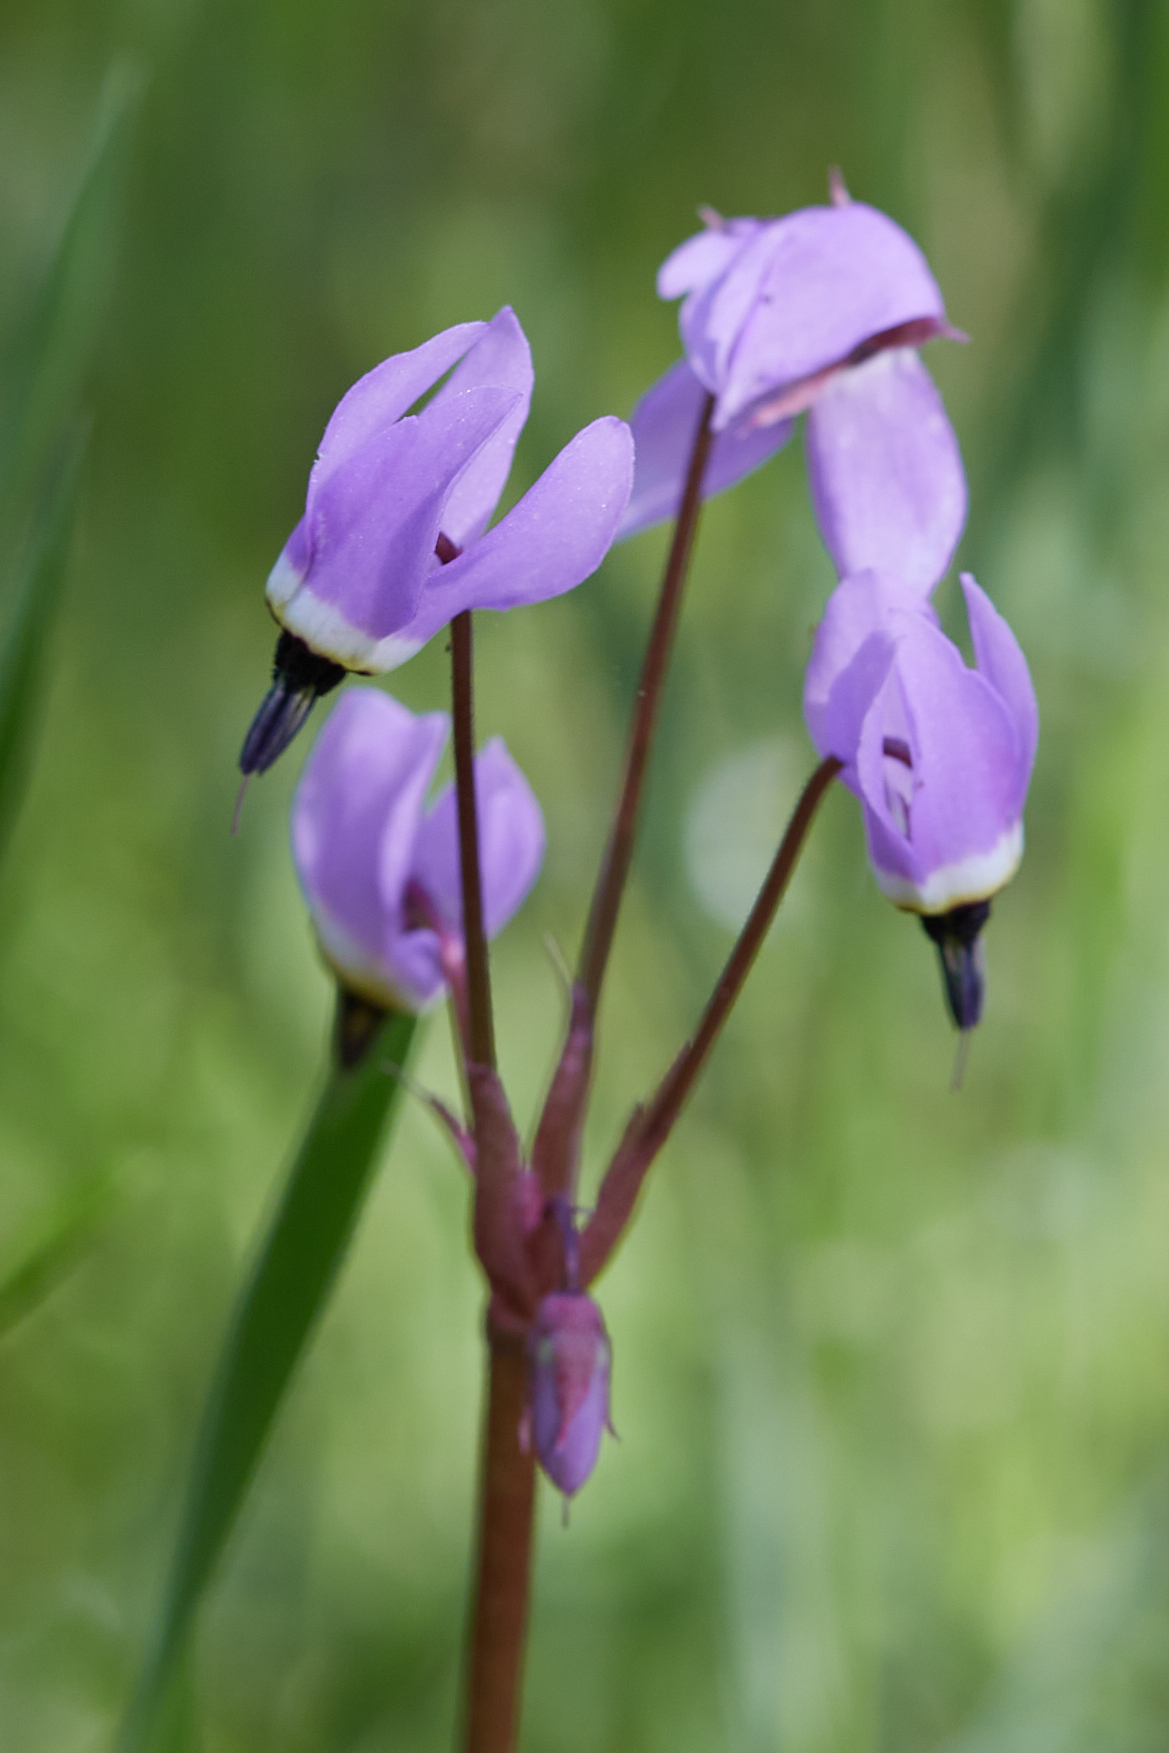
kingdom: Plantae
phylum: Tracheophyta
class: Magnoliopsida
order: Ericales
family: Primulaceae
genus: Dodecatheon
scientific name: Dodecatheon hendersonii
